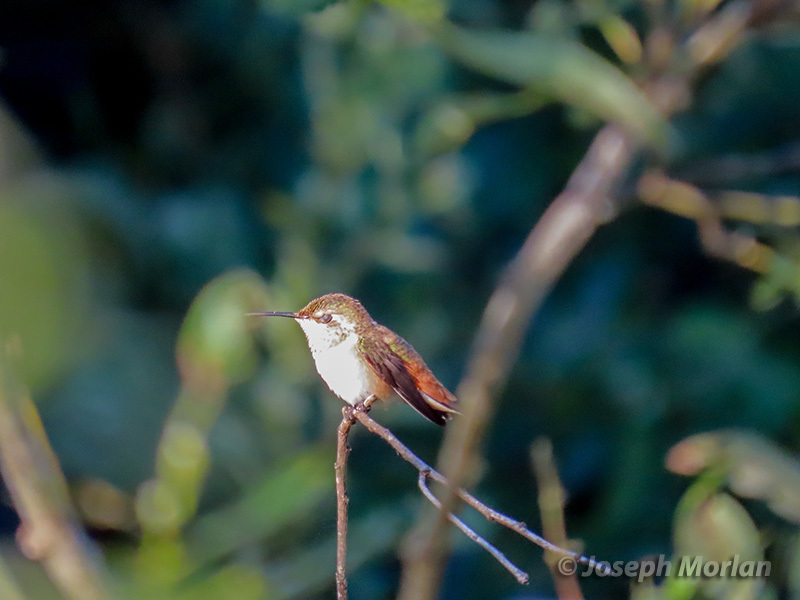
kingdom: Animalia
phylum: Chordata
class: Aves
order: Apodiformes
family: Trochilidae
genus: Selasphorus
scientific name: Selasphorus sasin
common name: Allen's hummingbird
